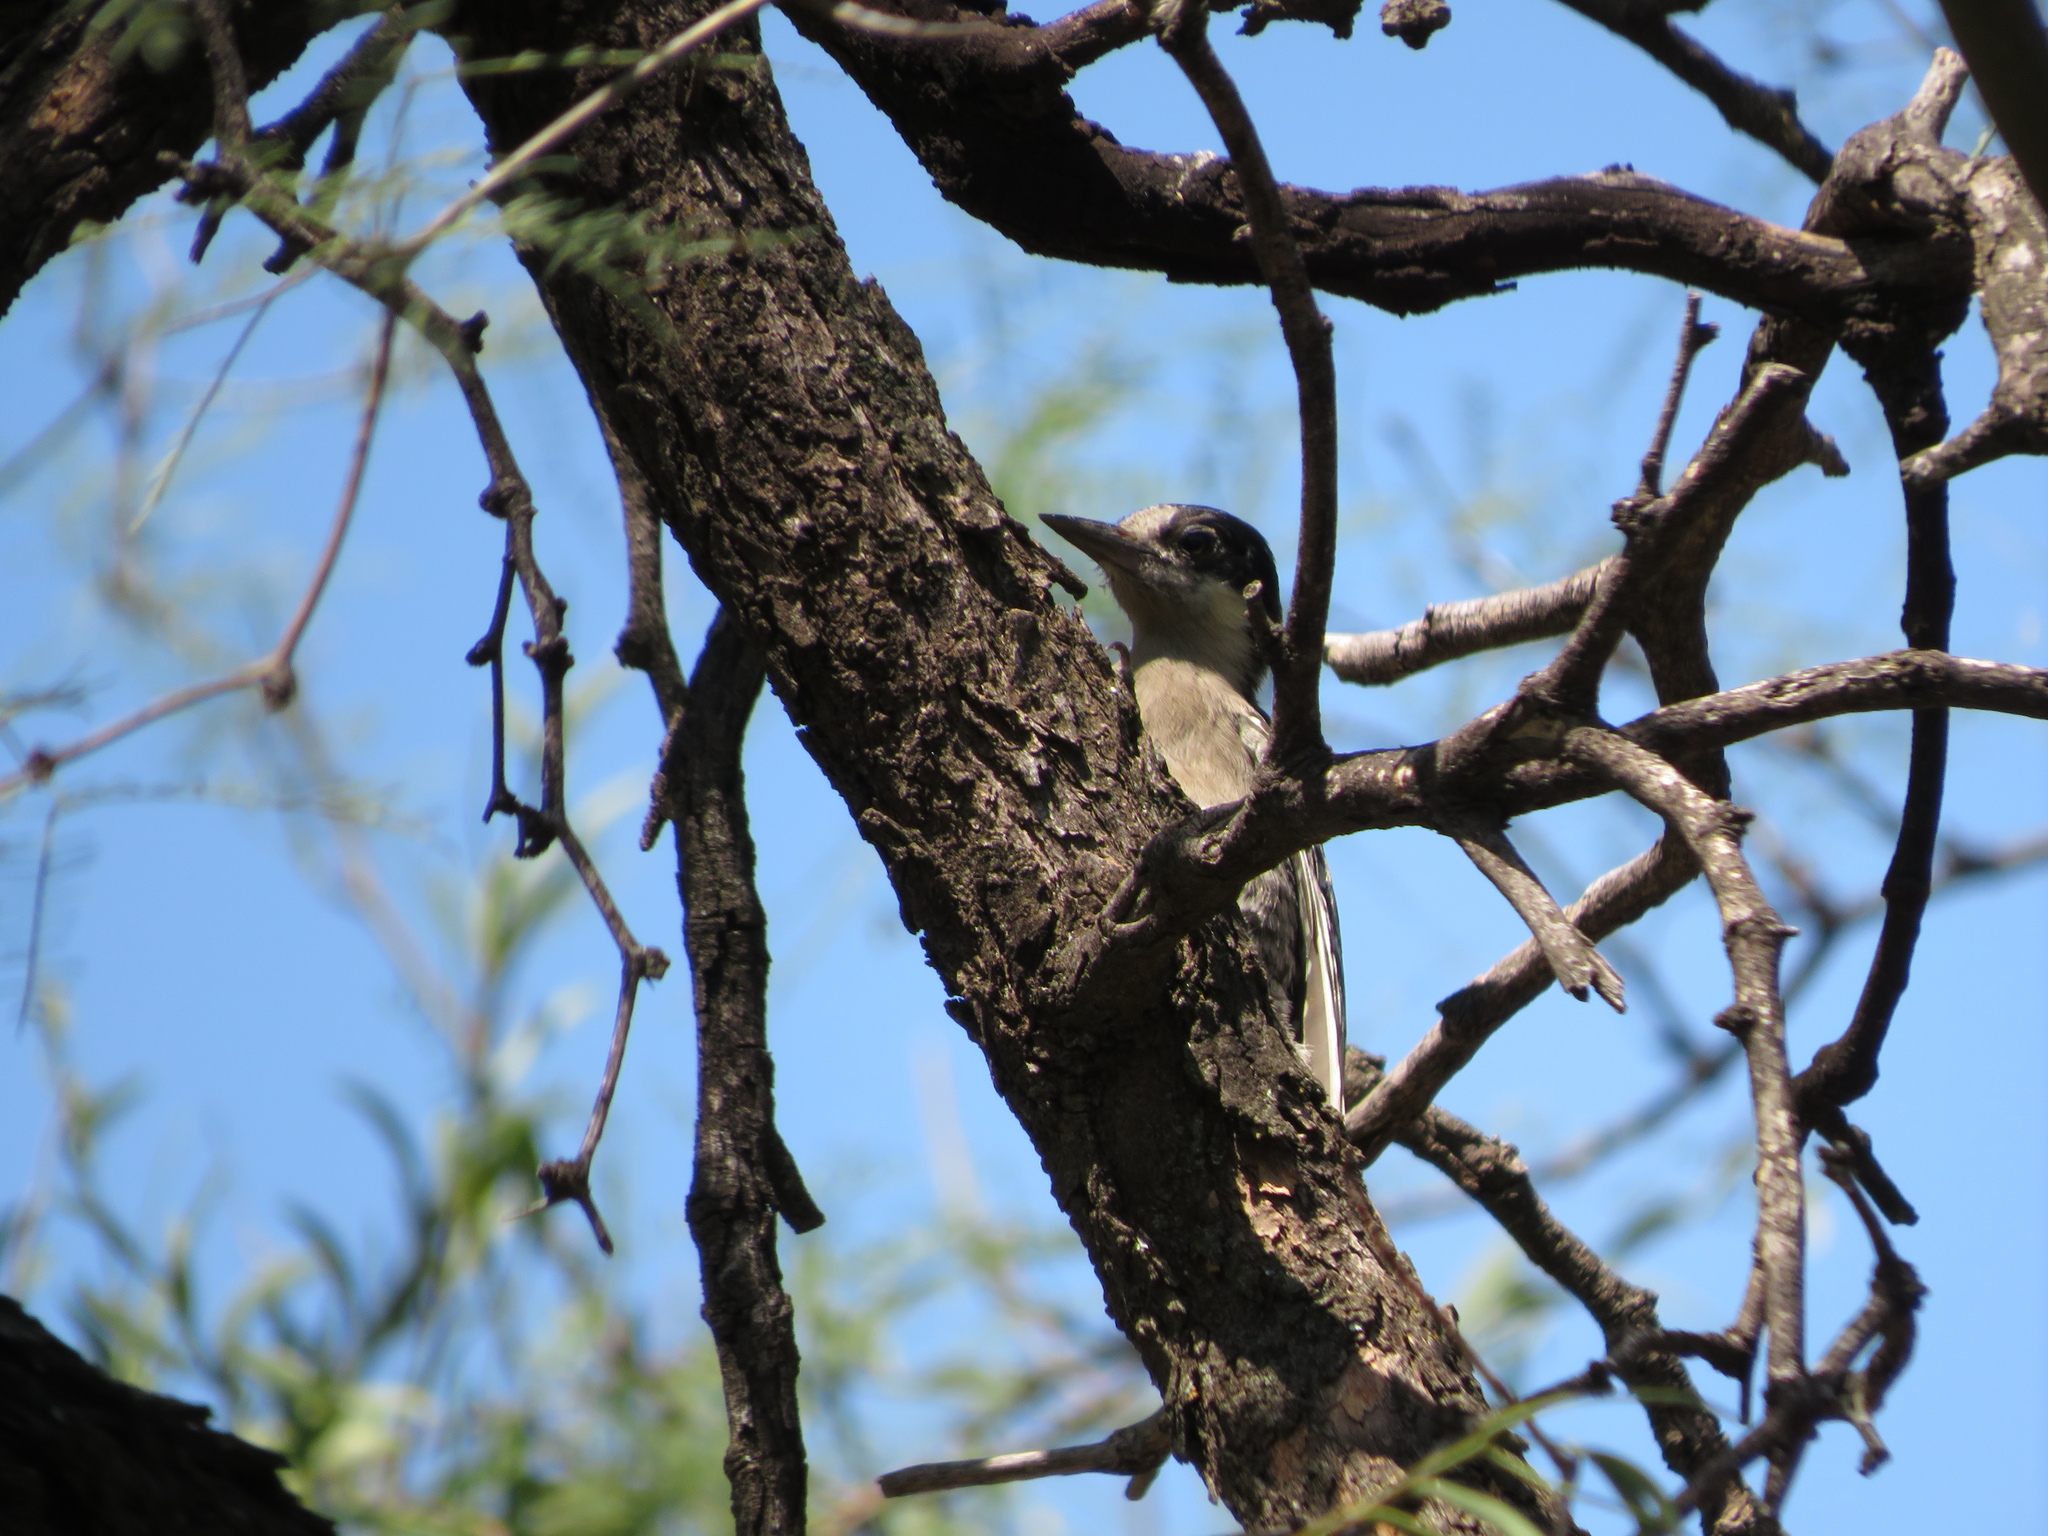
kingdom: Animalia
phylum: Chordata
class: Aves
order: Piciformes
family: Picidae
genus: Melanerpes
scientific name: Melanerpes cactorum
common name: White-fronted woodpecker
